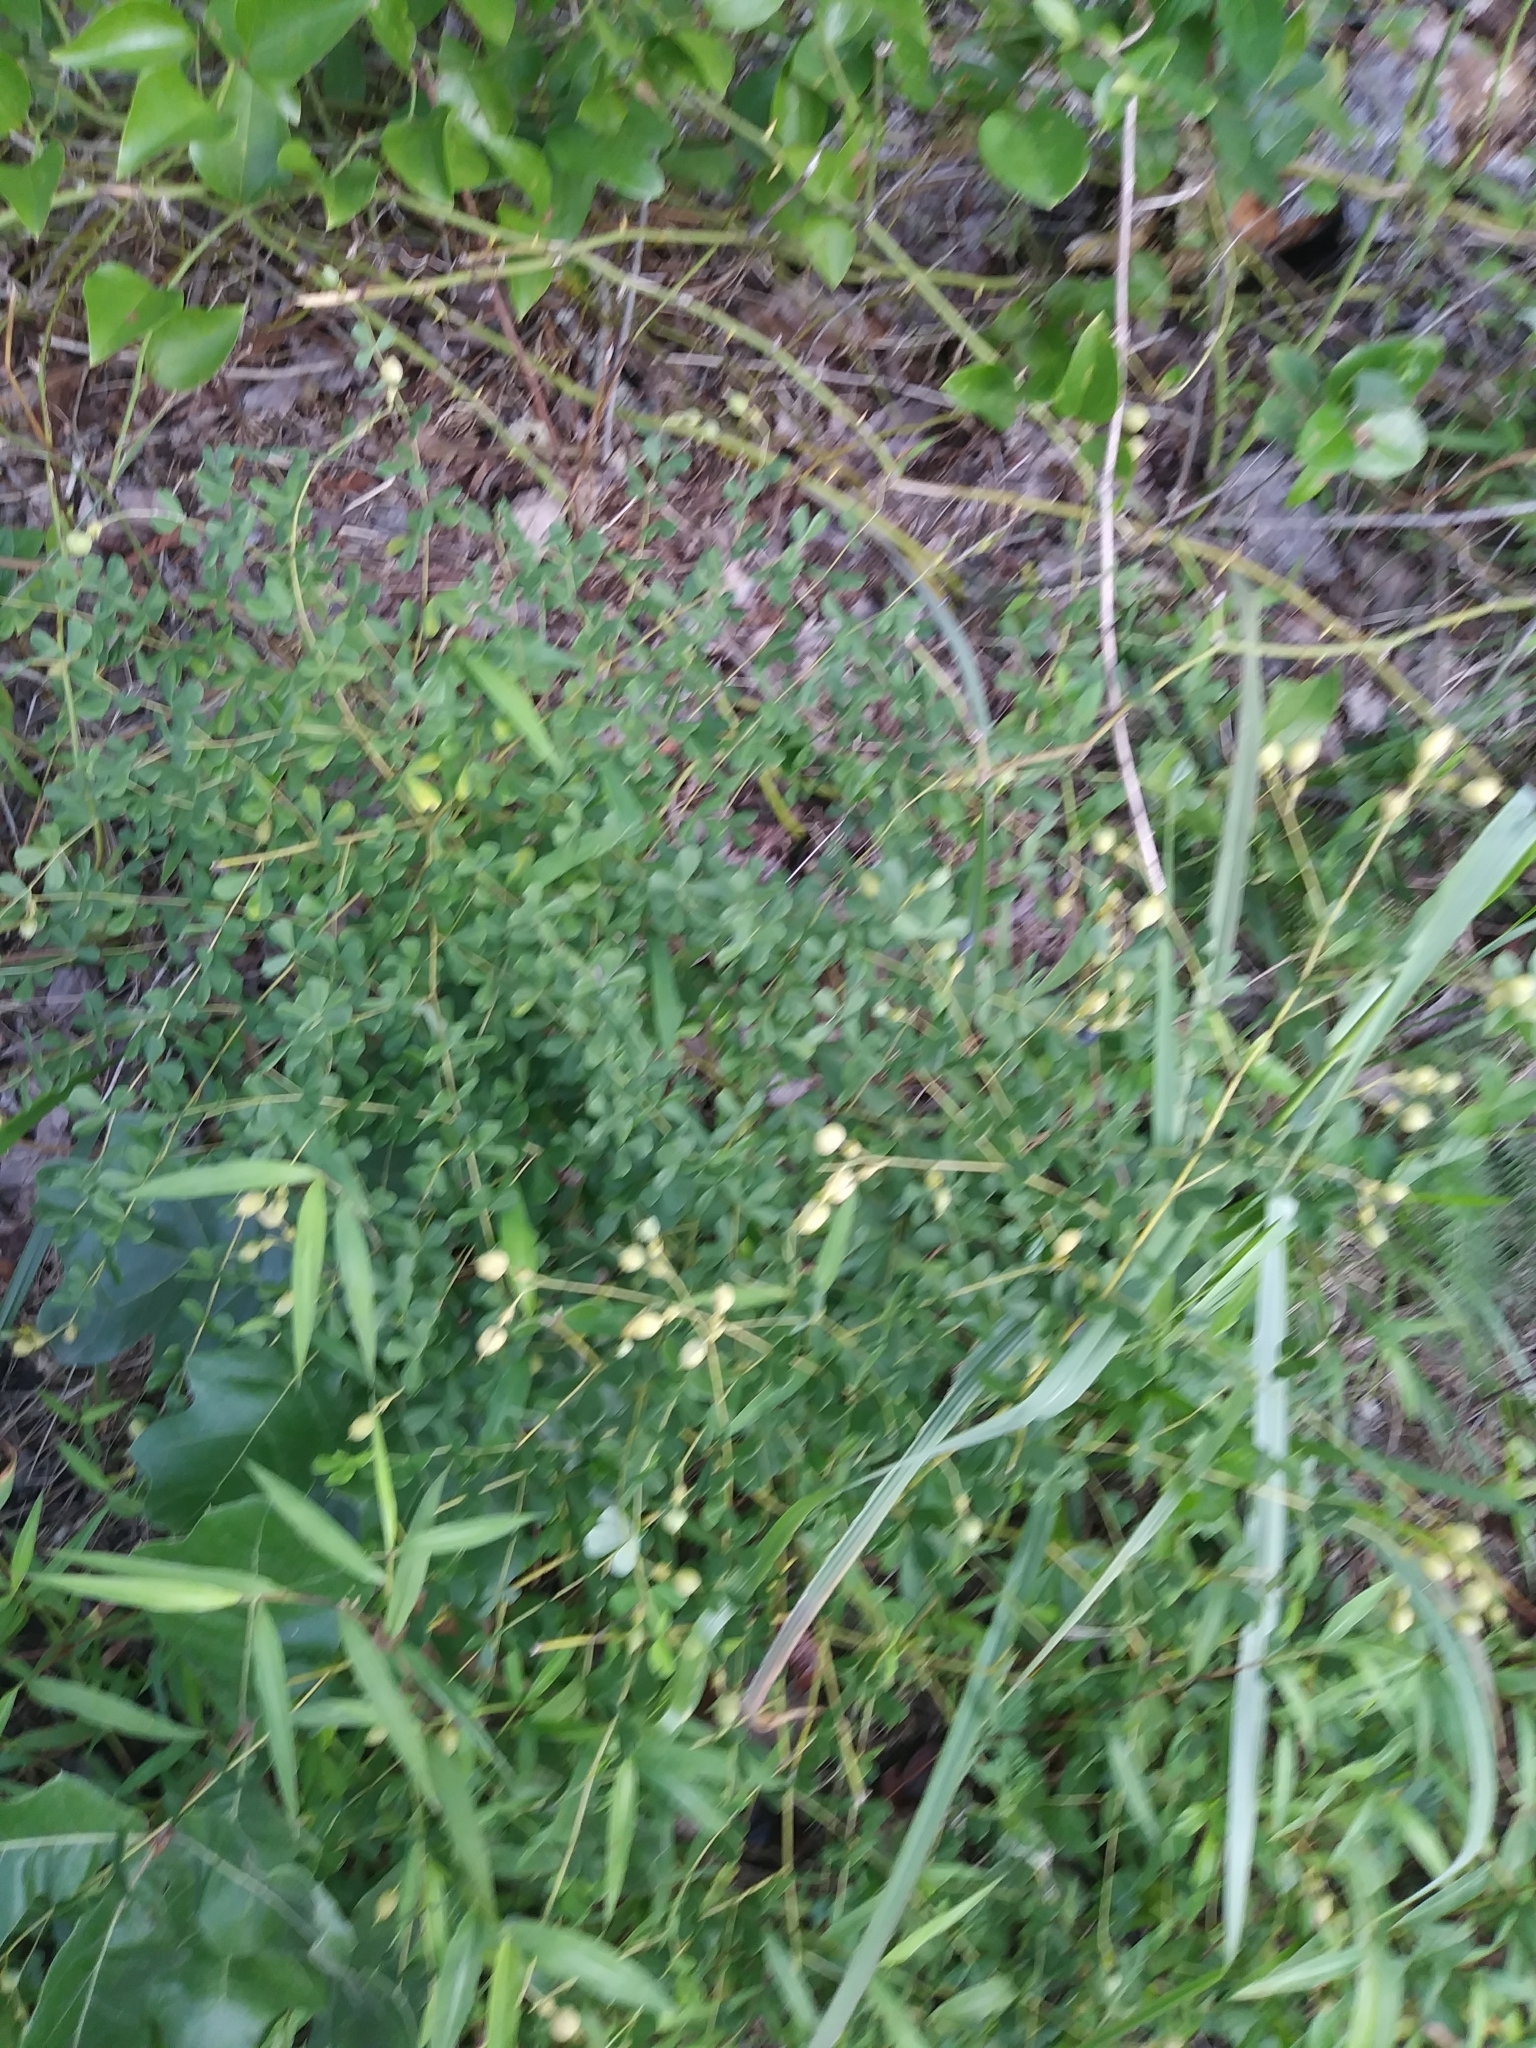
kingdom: Plantae
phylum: Tracheophyta
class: Magnoliopsida
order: Fabales
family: Fabaceae
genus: Baptisia
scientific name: Baptisia tinctoria
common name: Wild indigo
